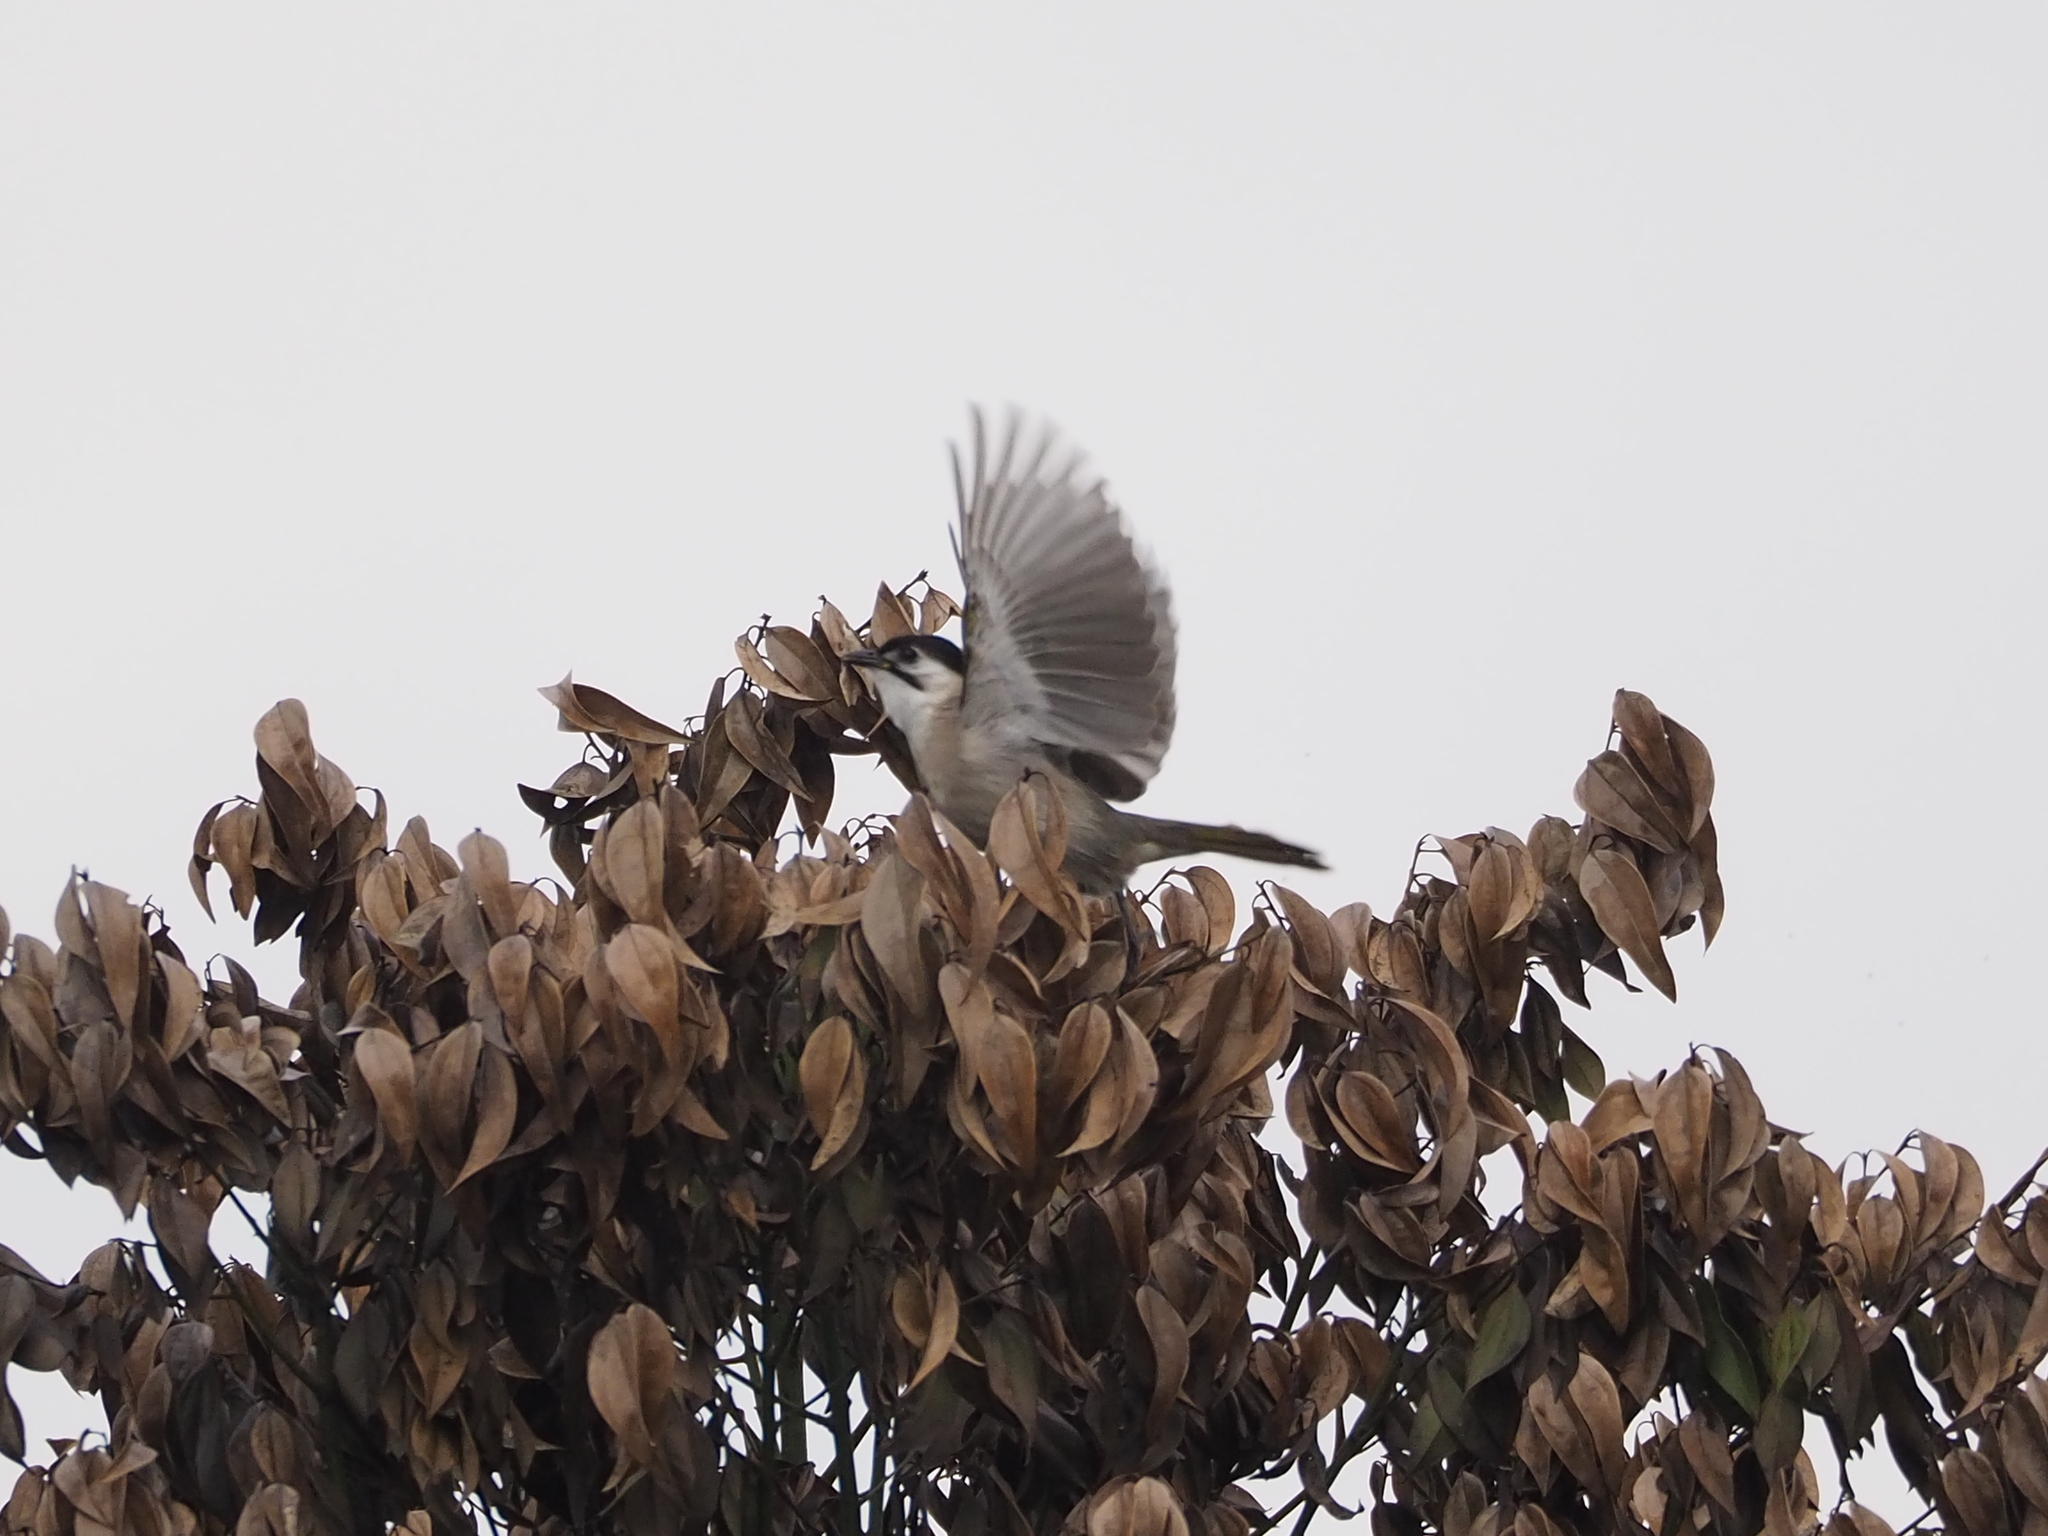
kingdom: Animalia
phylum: Chordata
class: Aves
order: Passeriformes
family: Pycnonotidae
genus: Pycnonotus
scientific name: Pycnonotus taivanus
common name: Styan's bulbul
